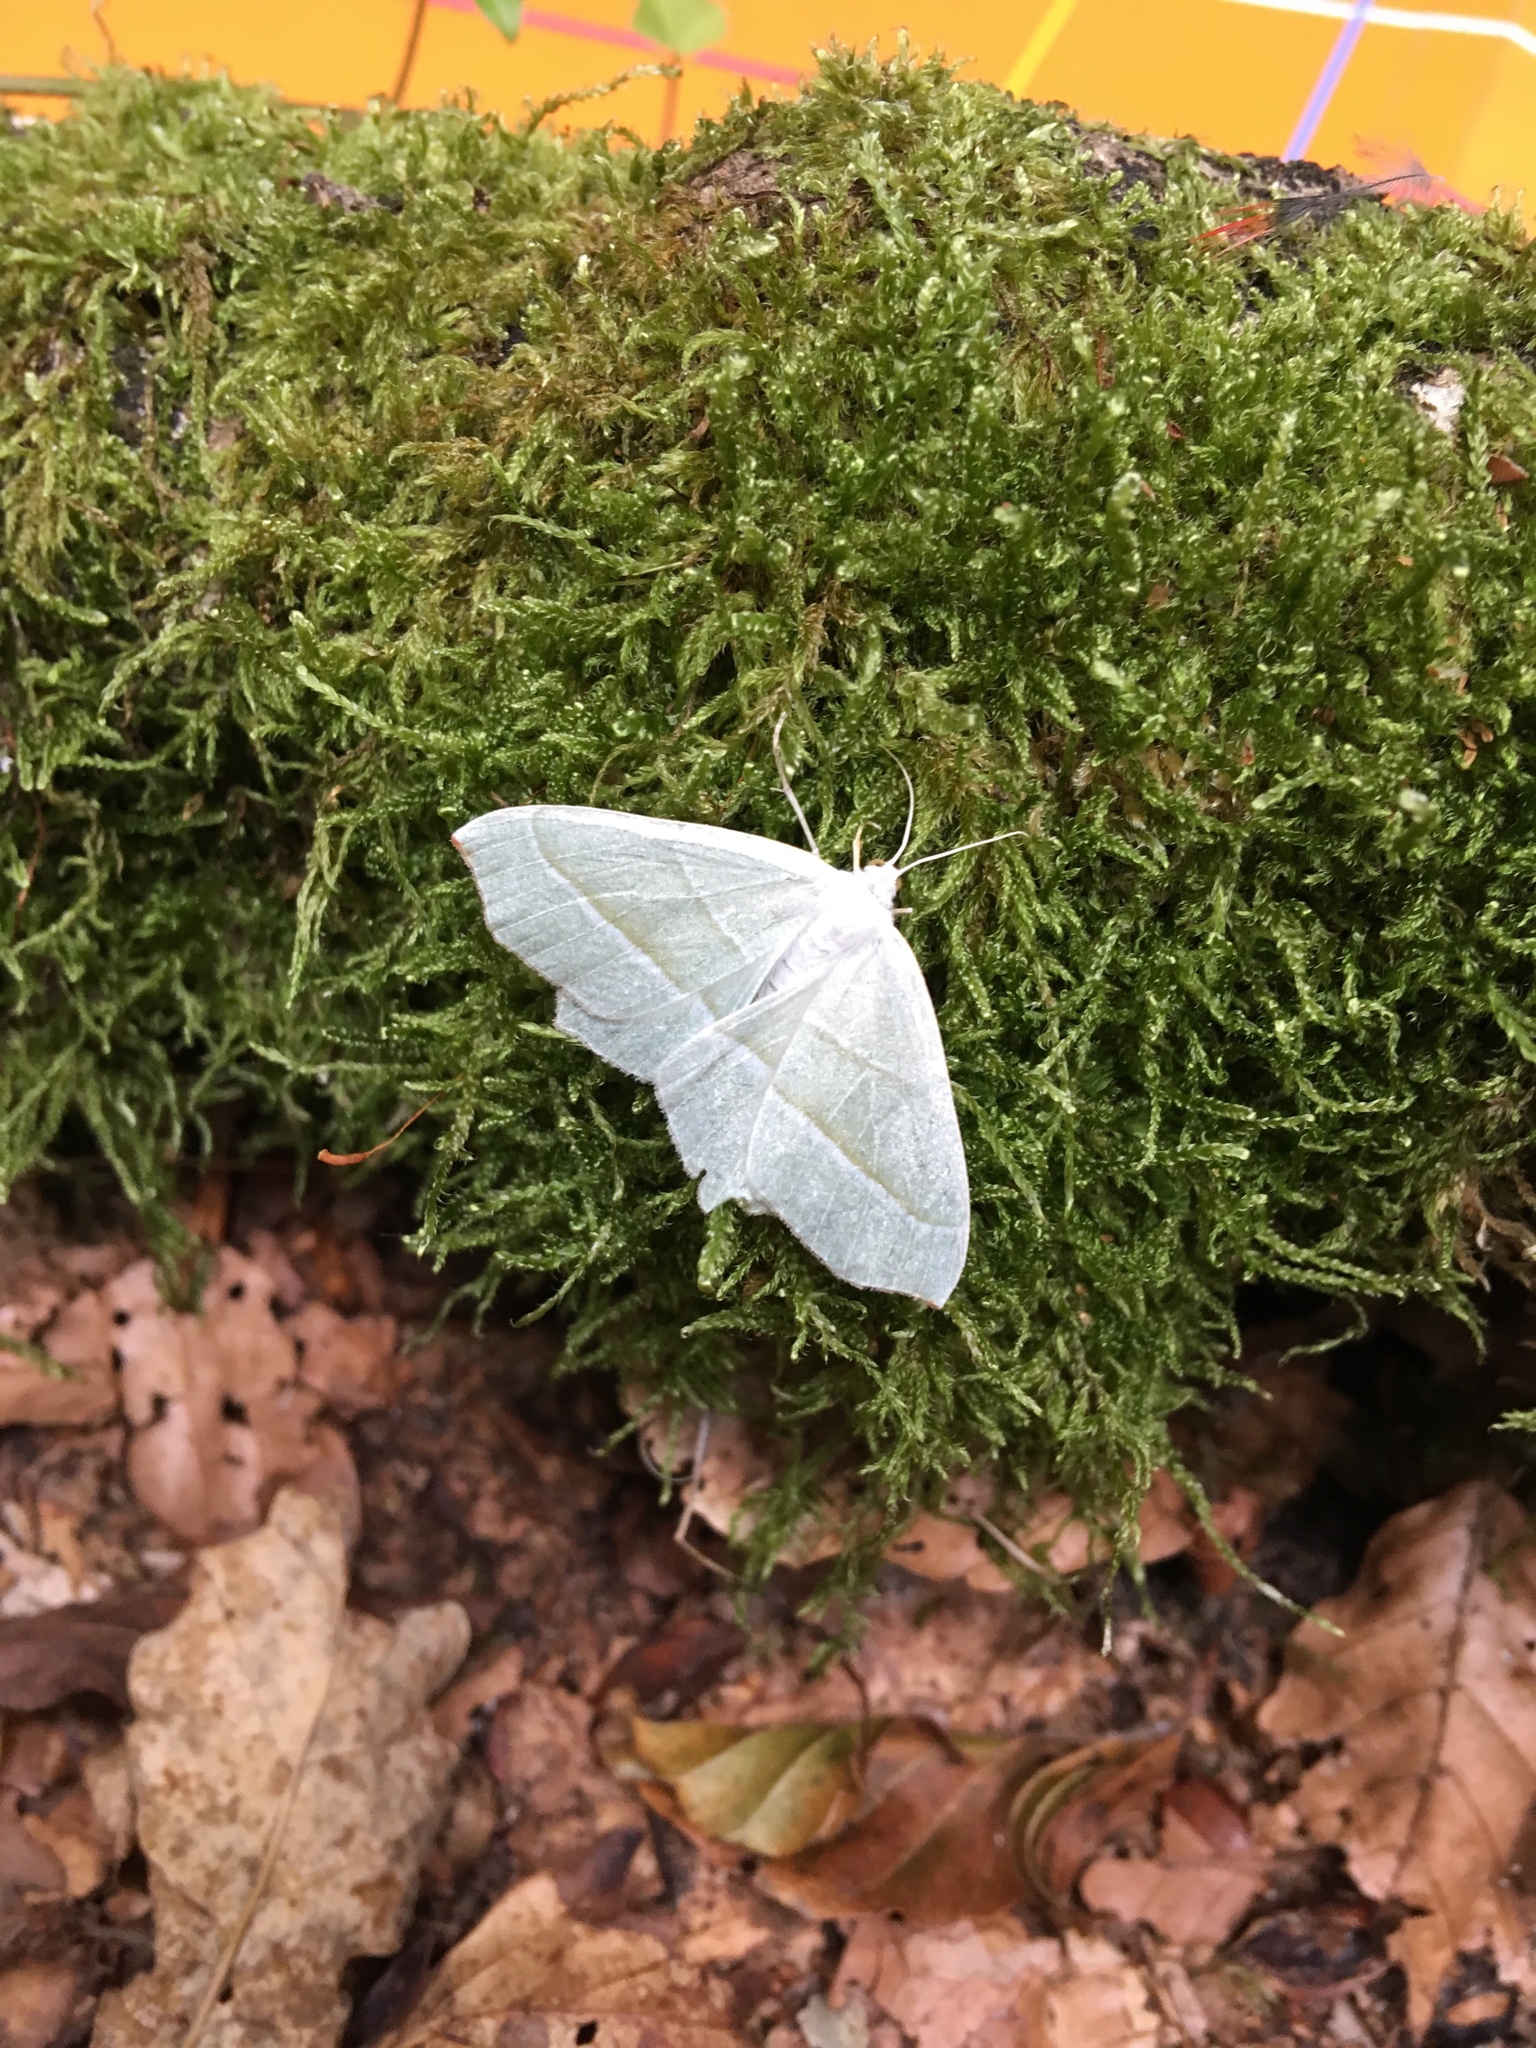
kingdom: Animalia
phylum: Arthropoda
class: Insecta
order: Lepidoptera
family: Geometridae
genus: Campaea
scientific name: Campaea margaritaria
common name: Light emerald
